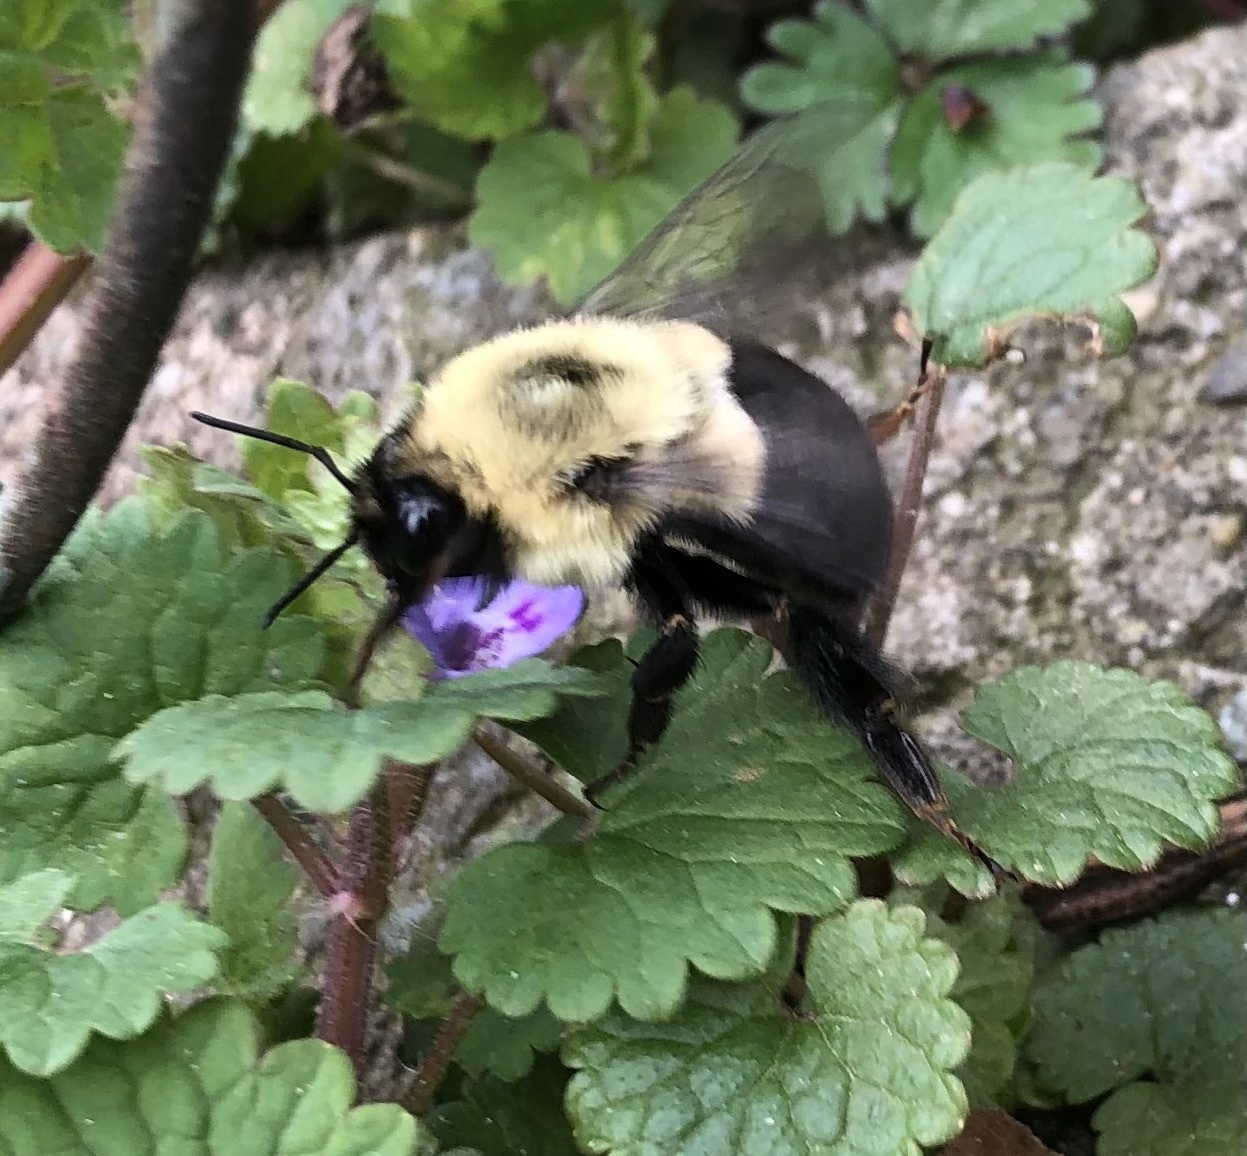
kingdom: Animalia
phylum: Arthropoda
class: Insecta
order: Hymenoptera
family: Apidae
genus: Bombus
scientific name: Bombus impatiens
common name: Common eastern bumble bee
